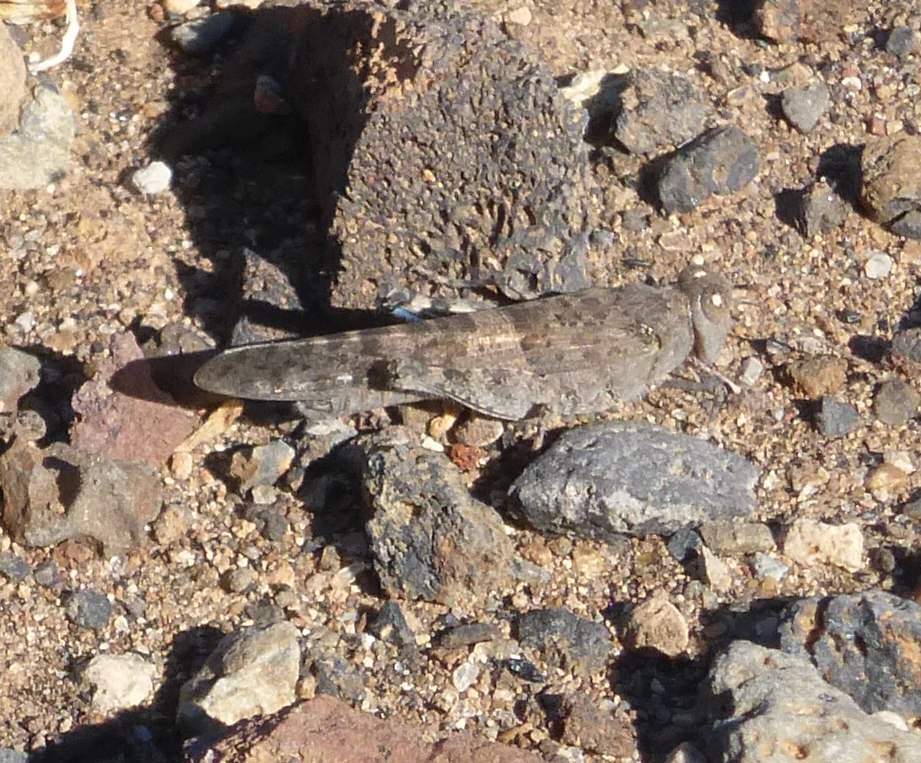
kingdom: Animalia
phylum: Arthropoda
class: Insecta
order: Orthoptera
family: Acrididae
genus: Sphingonotus
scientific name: Sphingonotus rubescens
